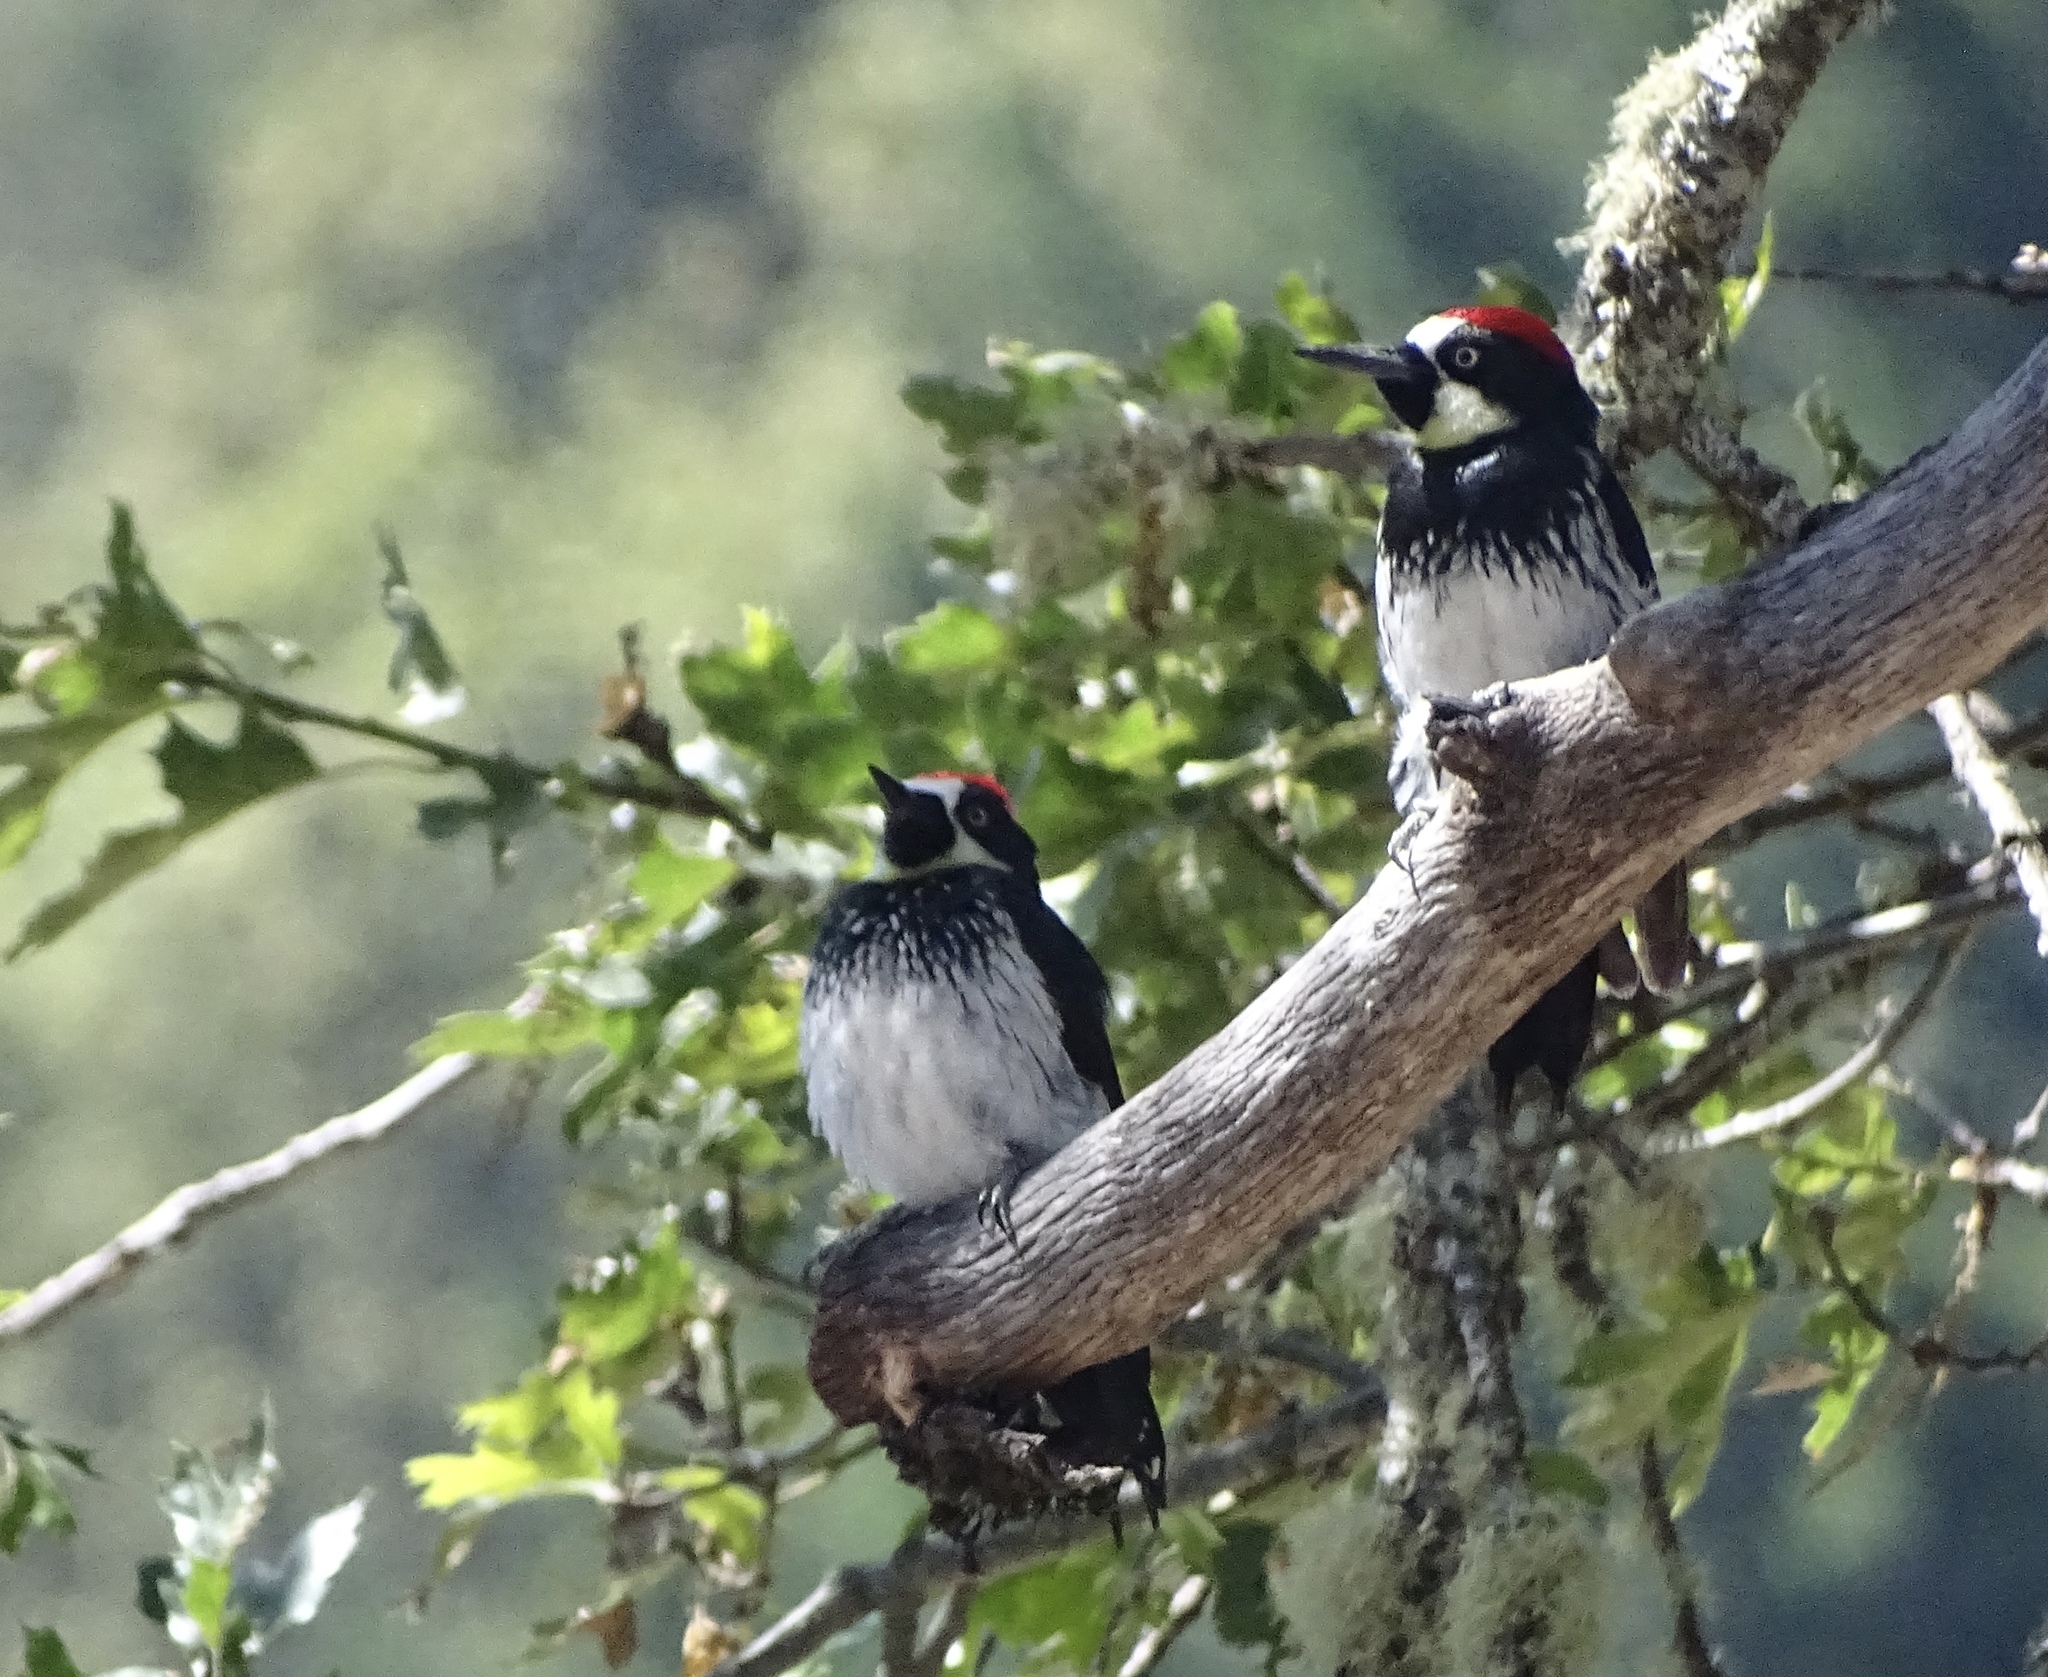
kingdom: Animalia
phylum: Chordata
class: Aves
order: Piciformes
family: Picidae
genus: Melanerpes
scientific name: Melanerpes formicivorus
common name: Acorn woodpecker
